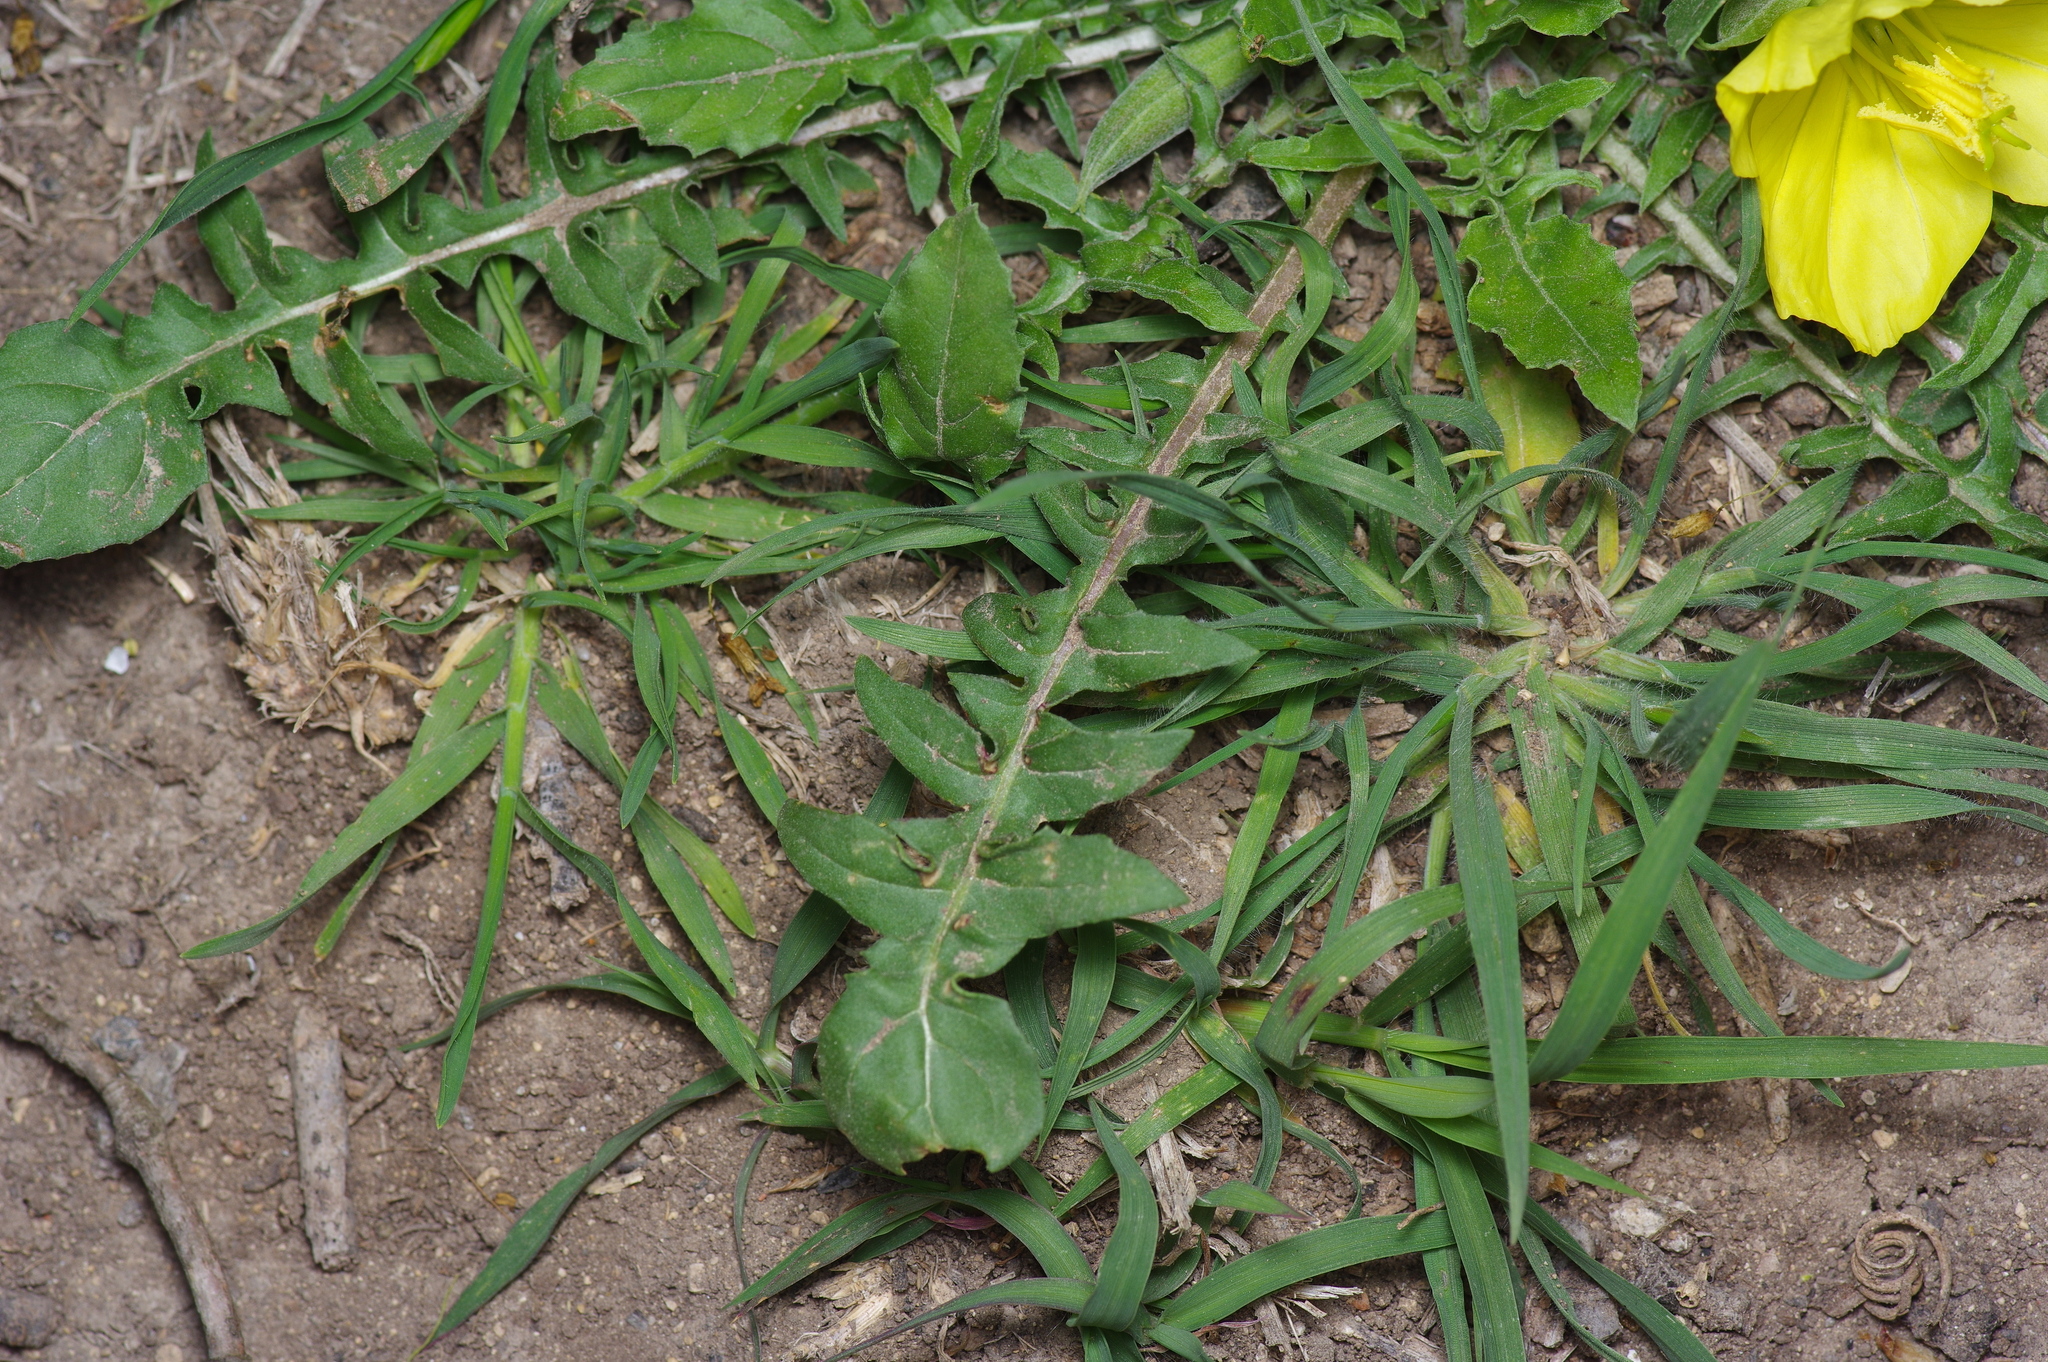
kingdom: Plantae
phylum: Tracheophyta
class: Magnoliopsida
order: Myrtales
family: Onagraceae
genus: Oenothera
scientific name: Oenothera triloba
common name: Sessile evening-primrose
